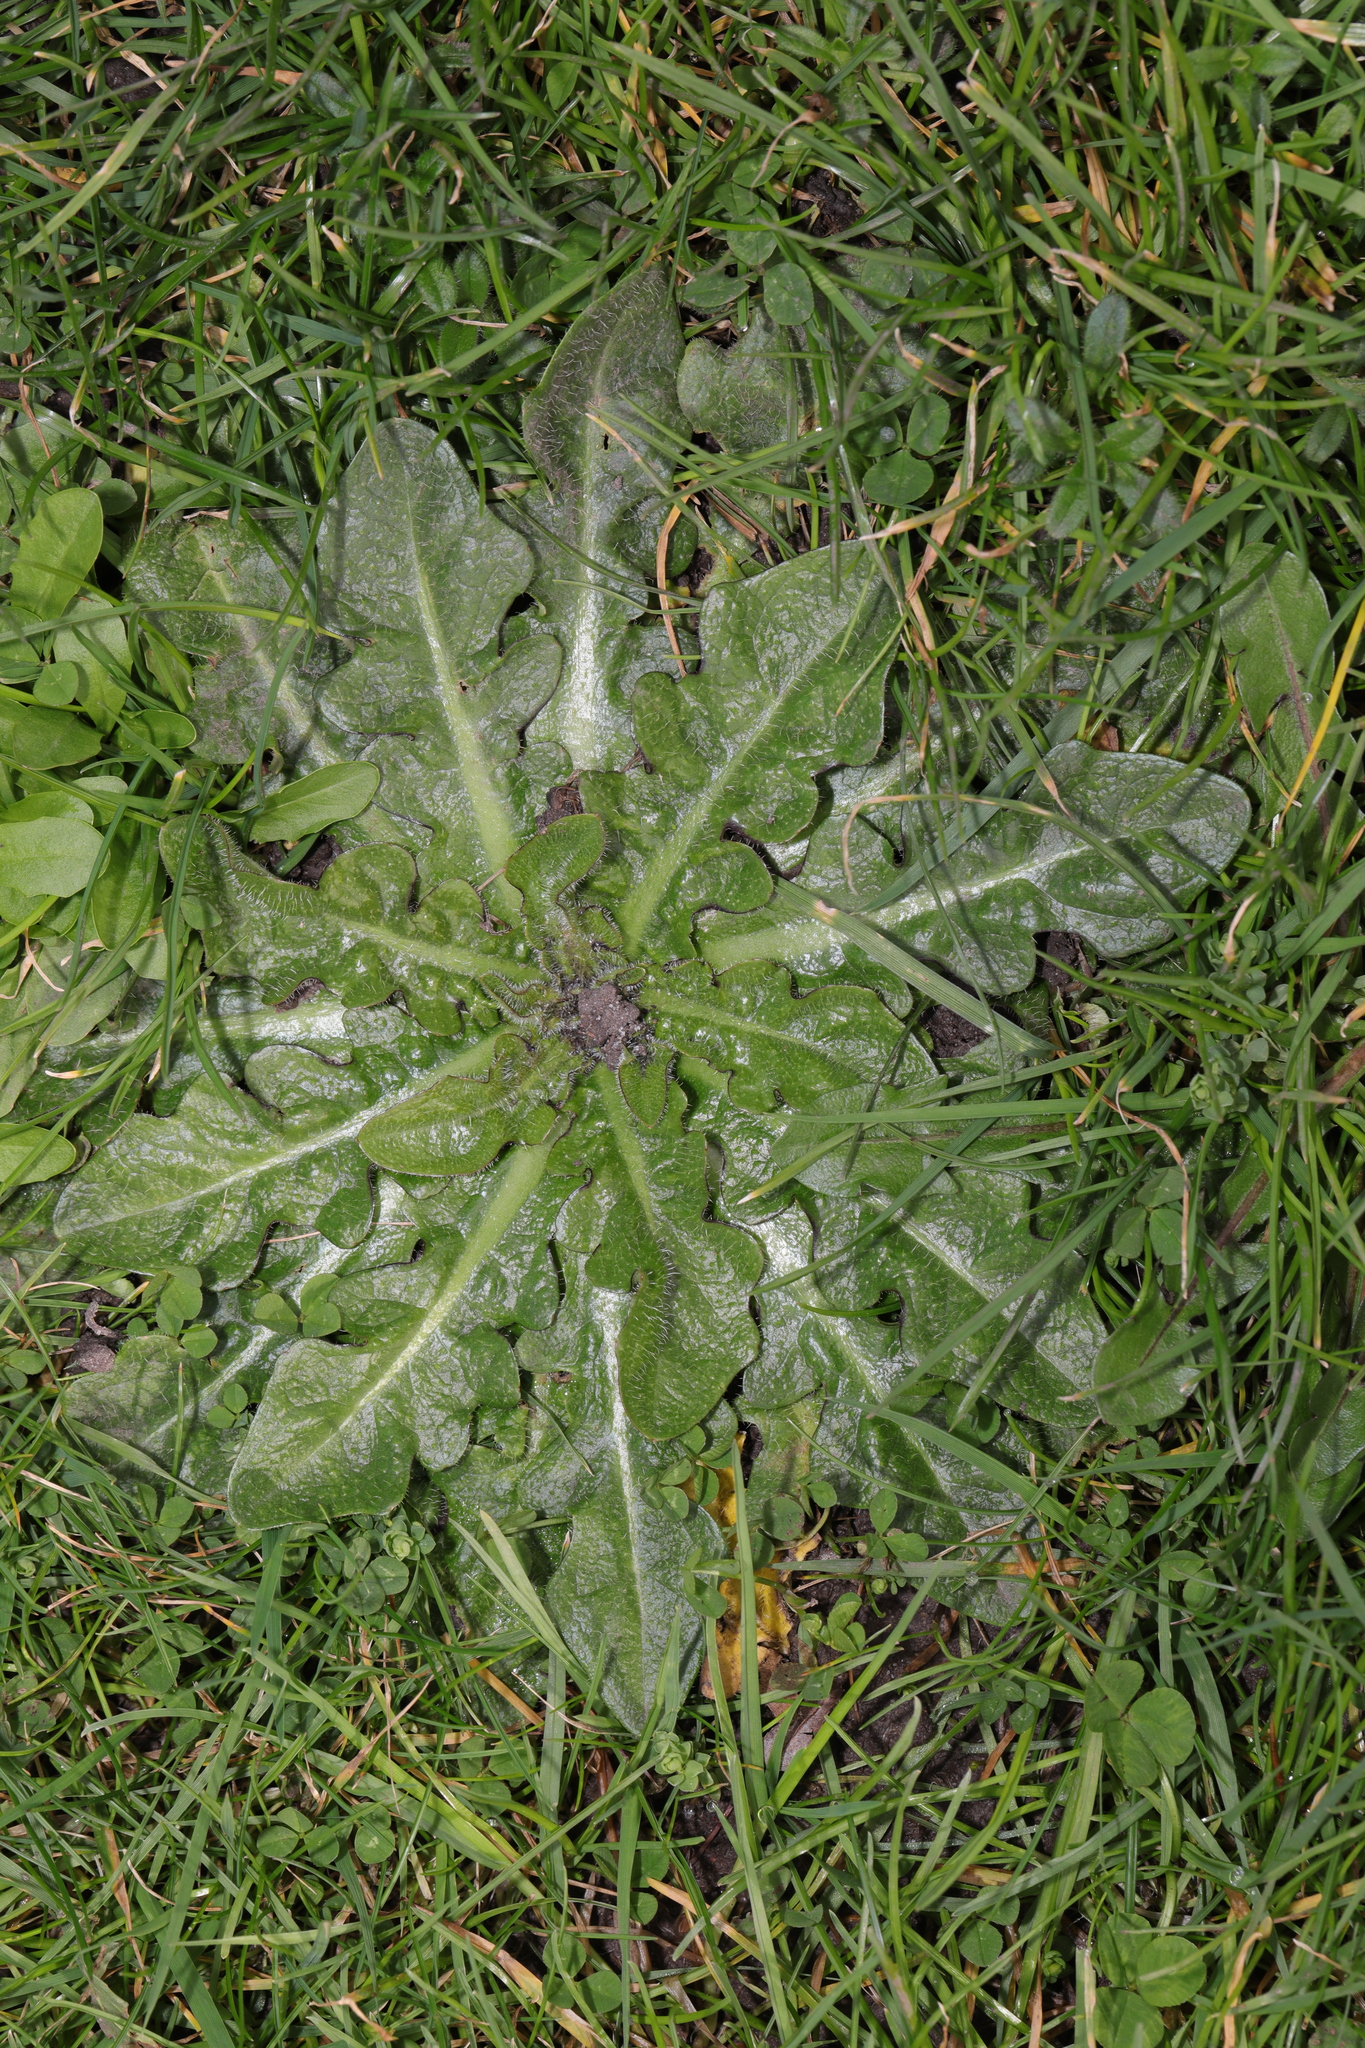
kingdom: Plantae
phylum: Tracheophyta
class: Magnoliopsida
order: Asterales
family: Asteraceae
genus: Hypochaeris
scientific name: Hypochaeris radicata
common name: Flatweed
